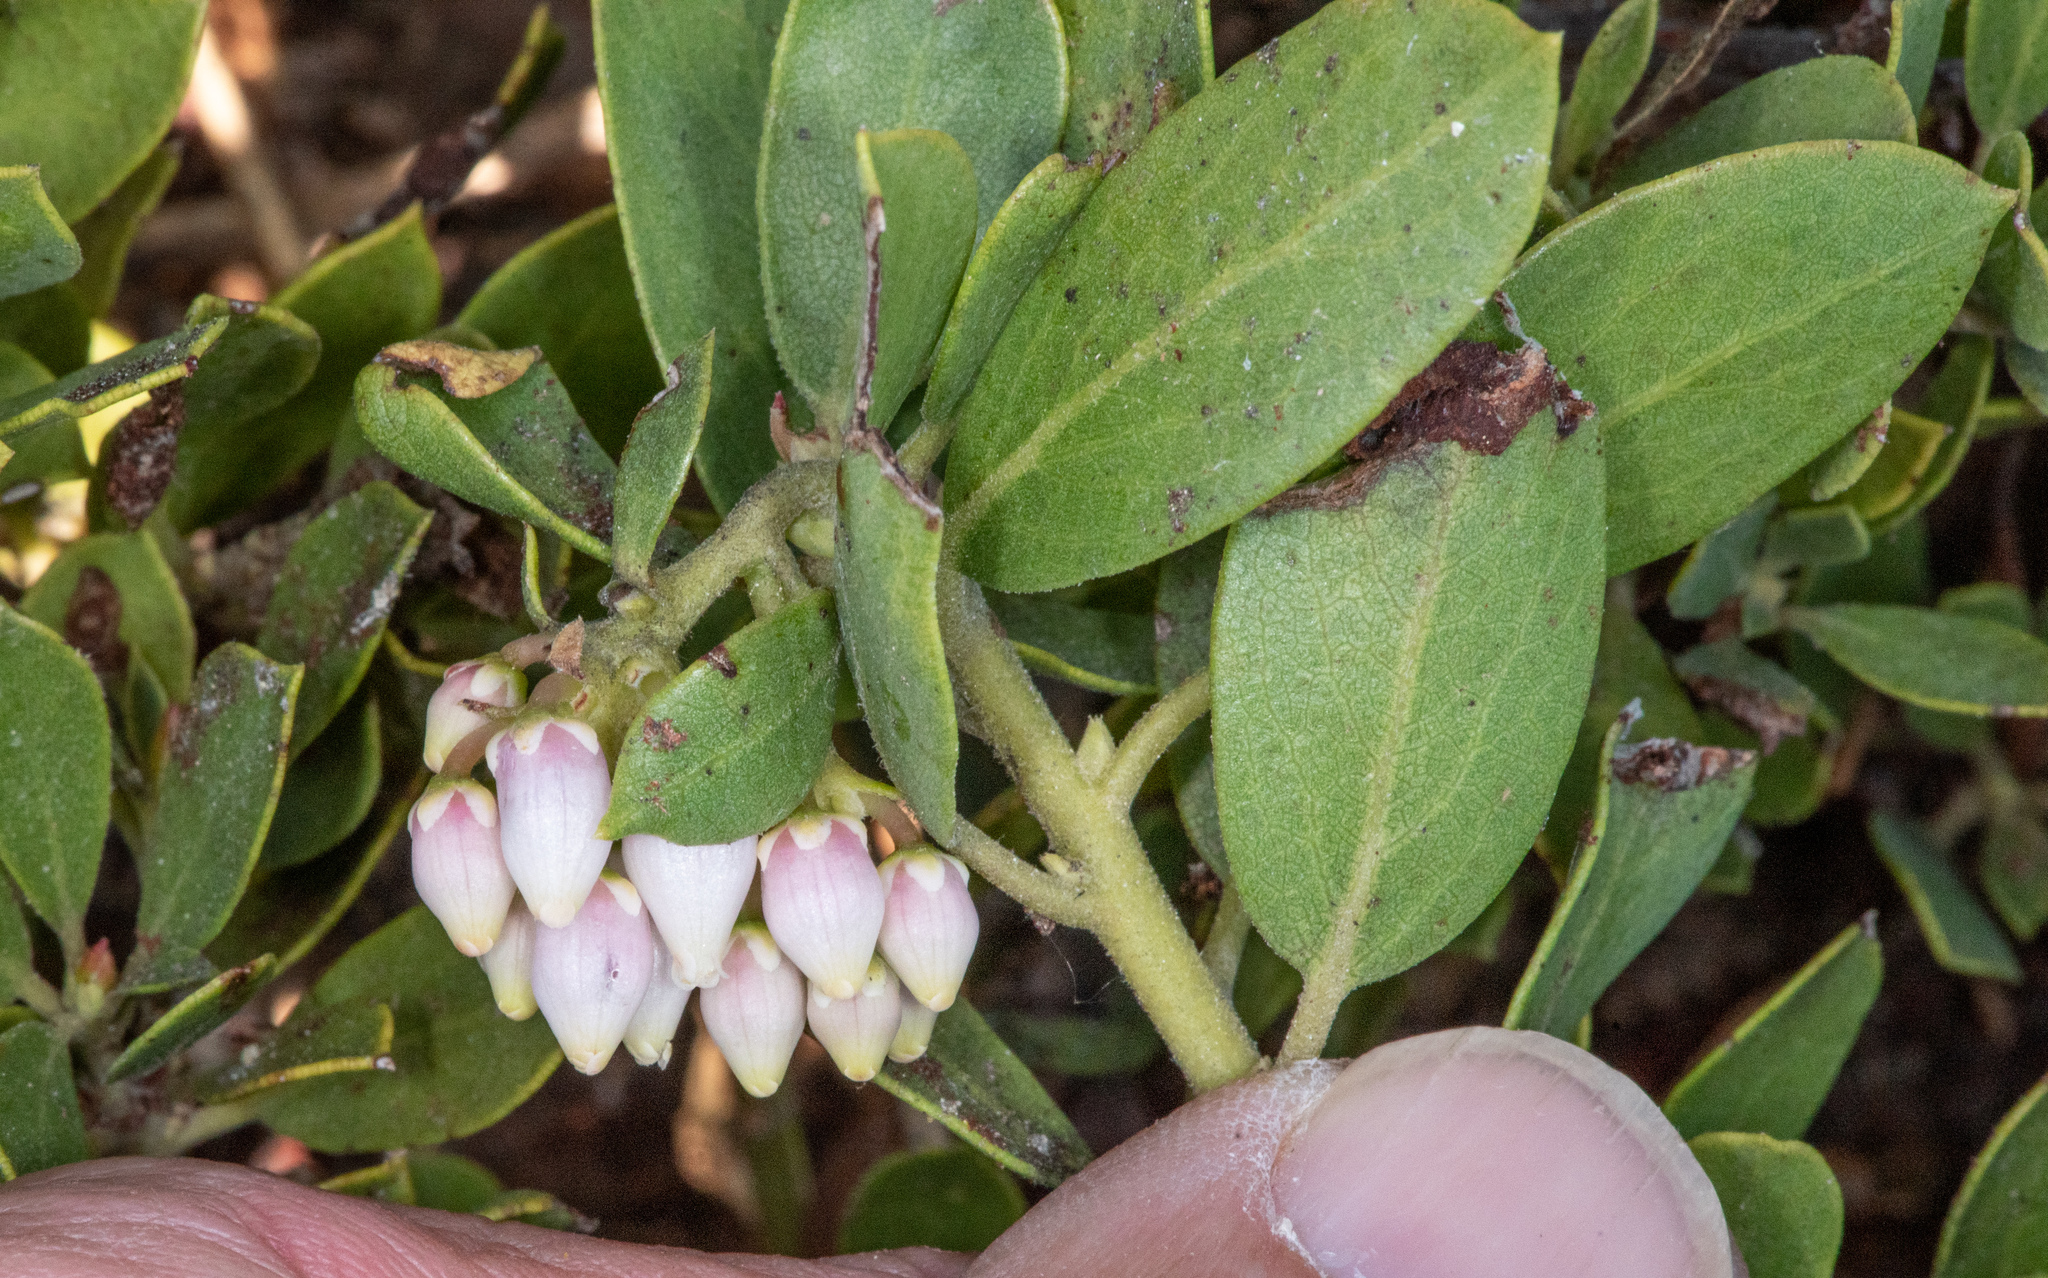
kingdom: Plantae
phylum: Tracheophyta
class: Magnoliopsida
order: Ericales
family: Ericaceae
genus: Arctostaphylos
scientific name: Arctostaphylos nevadensis
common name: Pinemat manzanita
